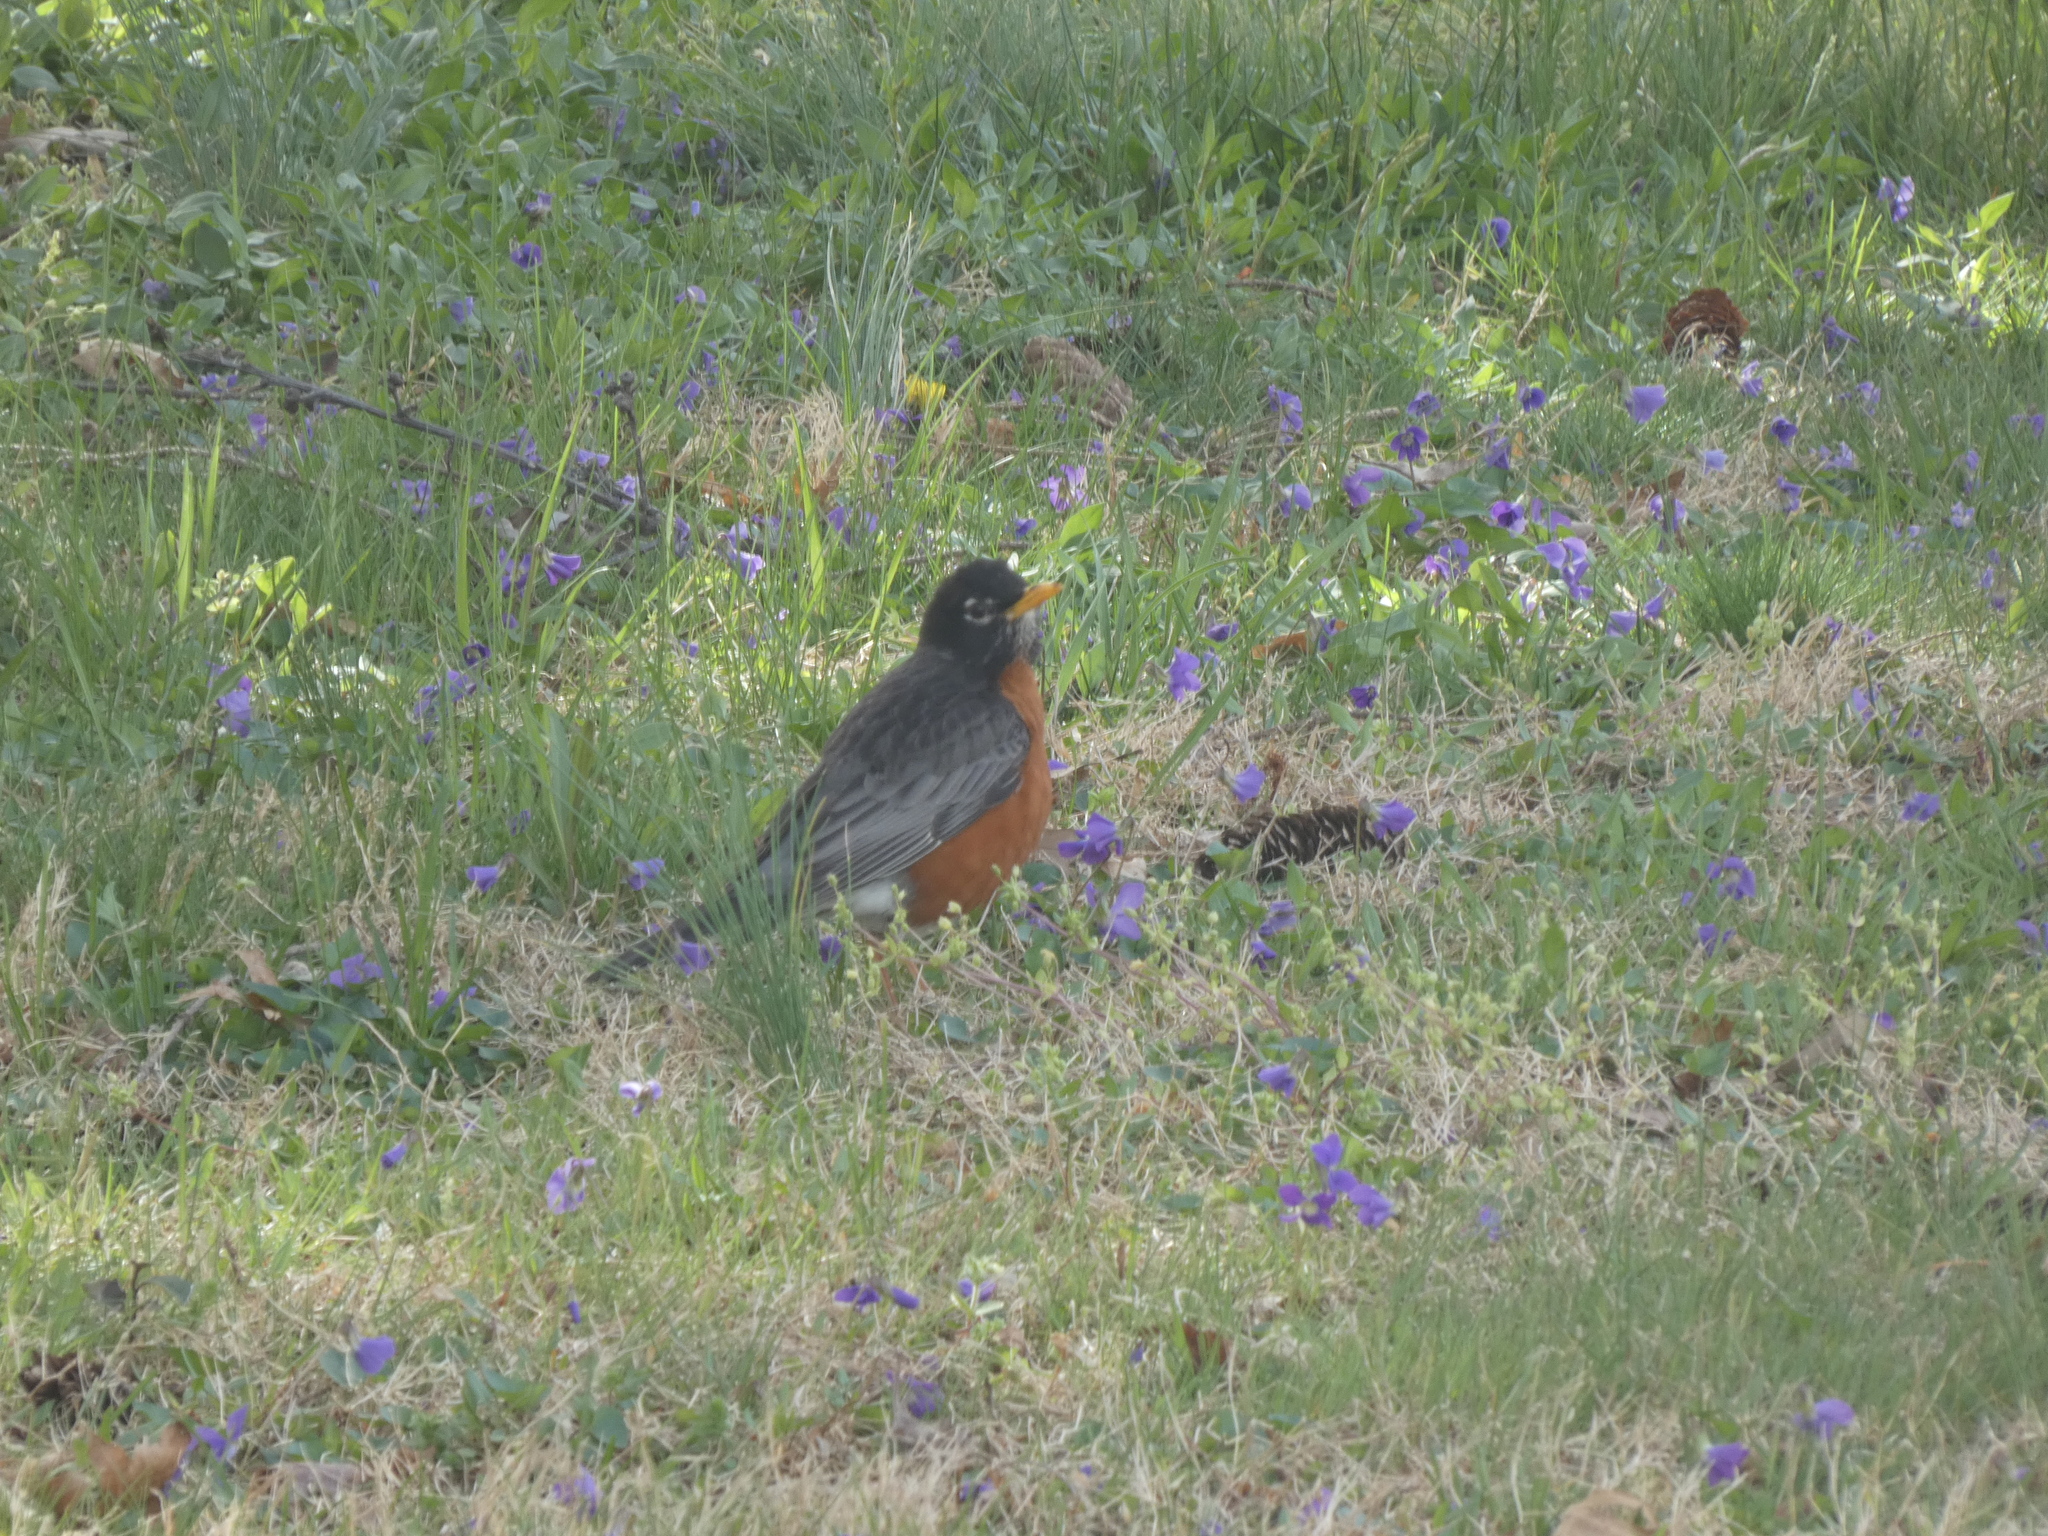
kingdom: Animalia
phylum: Chordata
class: Aves
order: Passeriformes
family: Turdidae
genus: Turdus
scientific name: Turdus migratorius
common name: American robin
